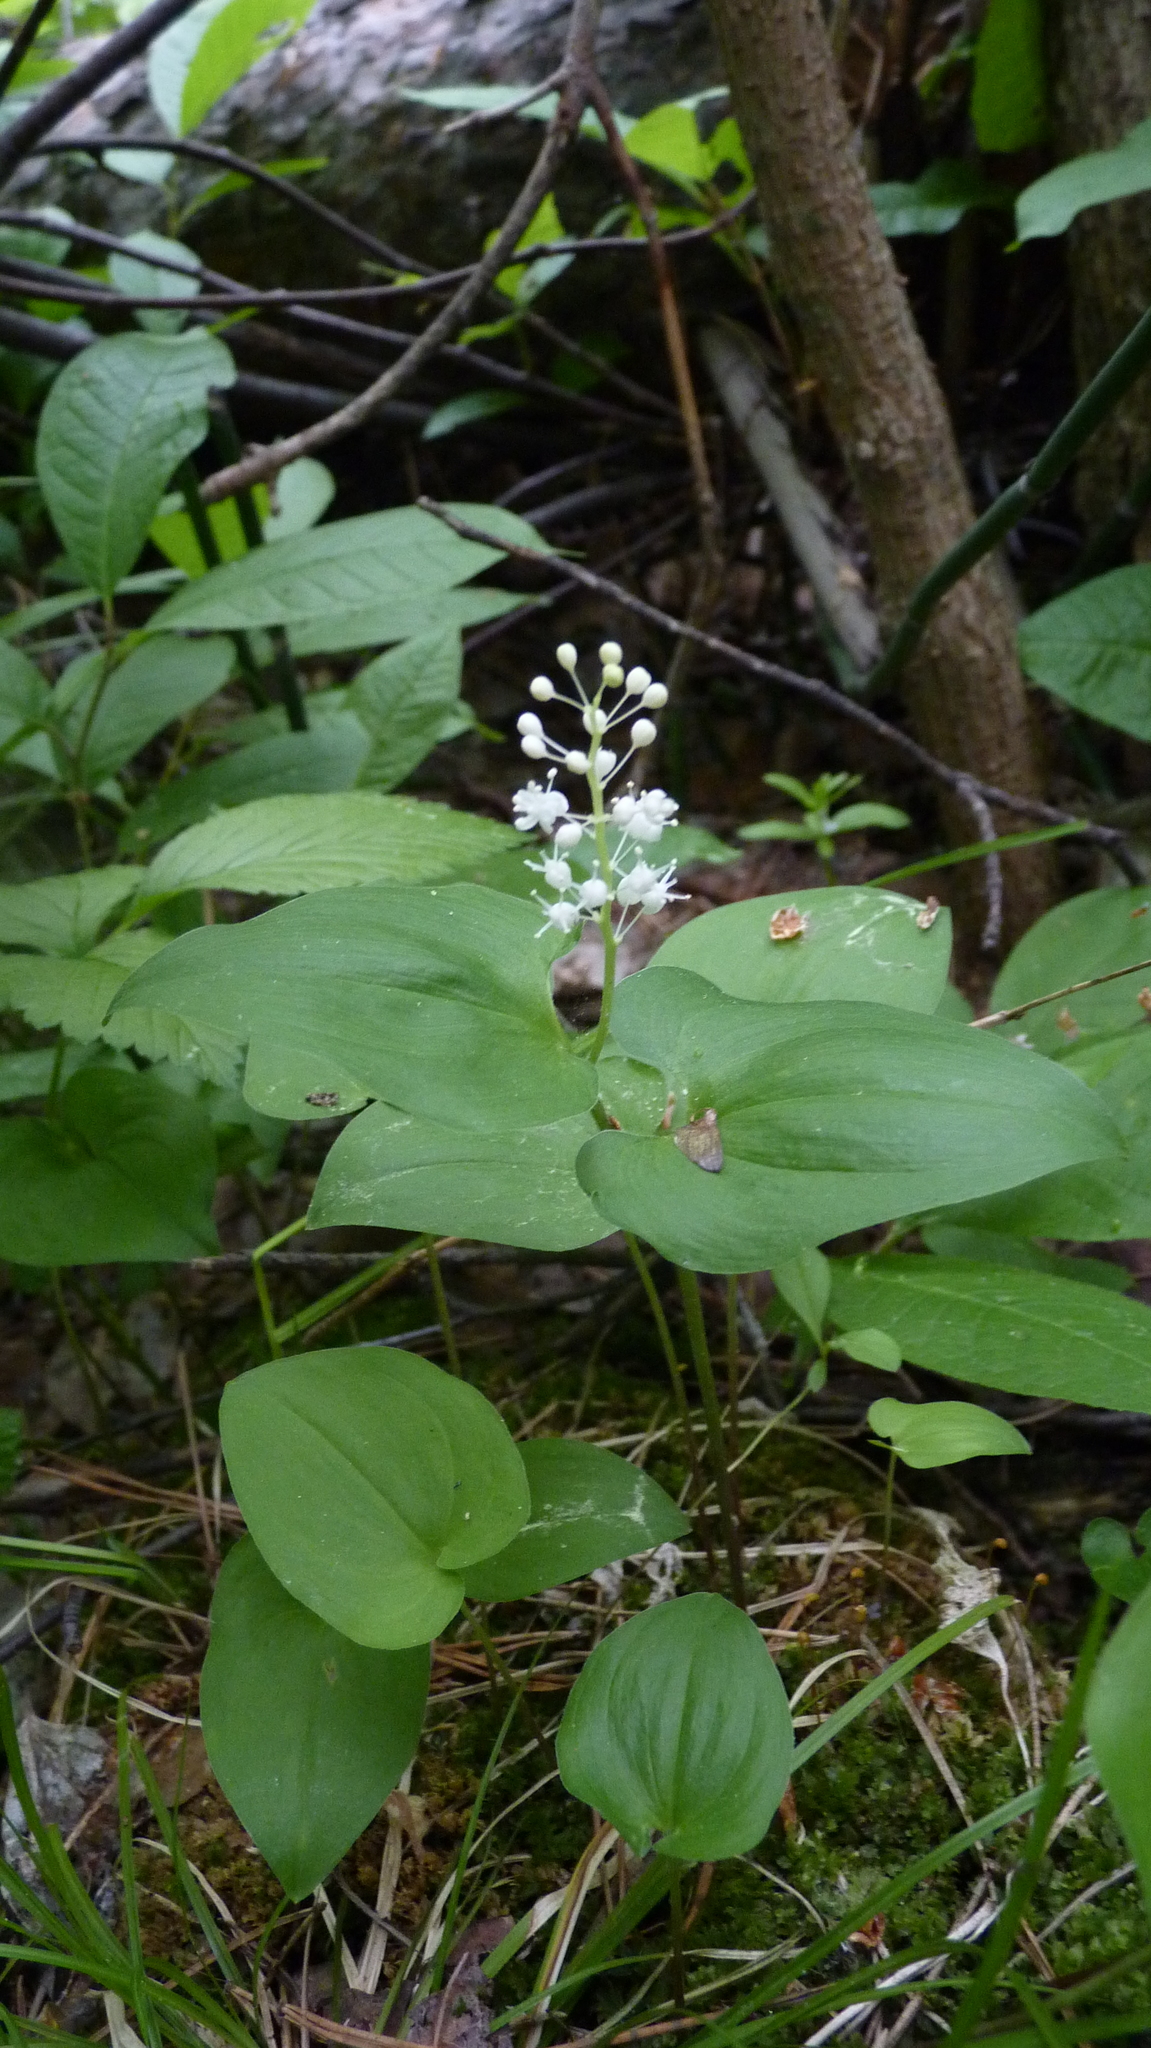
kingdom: Plantae
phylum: Tracheophyta
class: Liliopsida
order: Asparagales
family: Asparagaceae
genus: Maianthemum
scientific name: Maianthemum bifolium
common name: May lily
